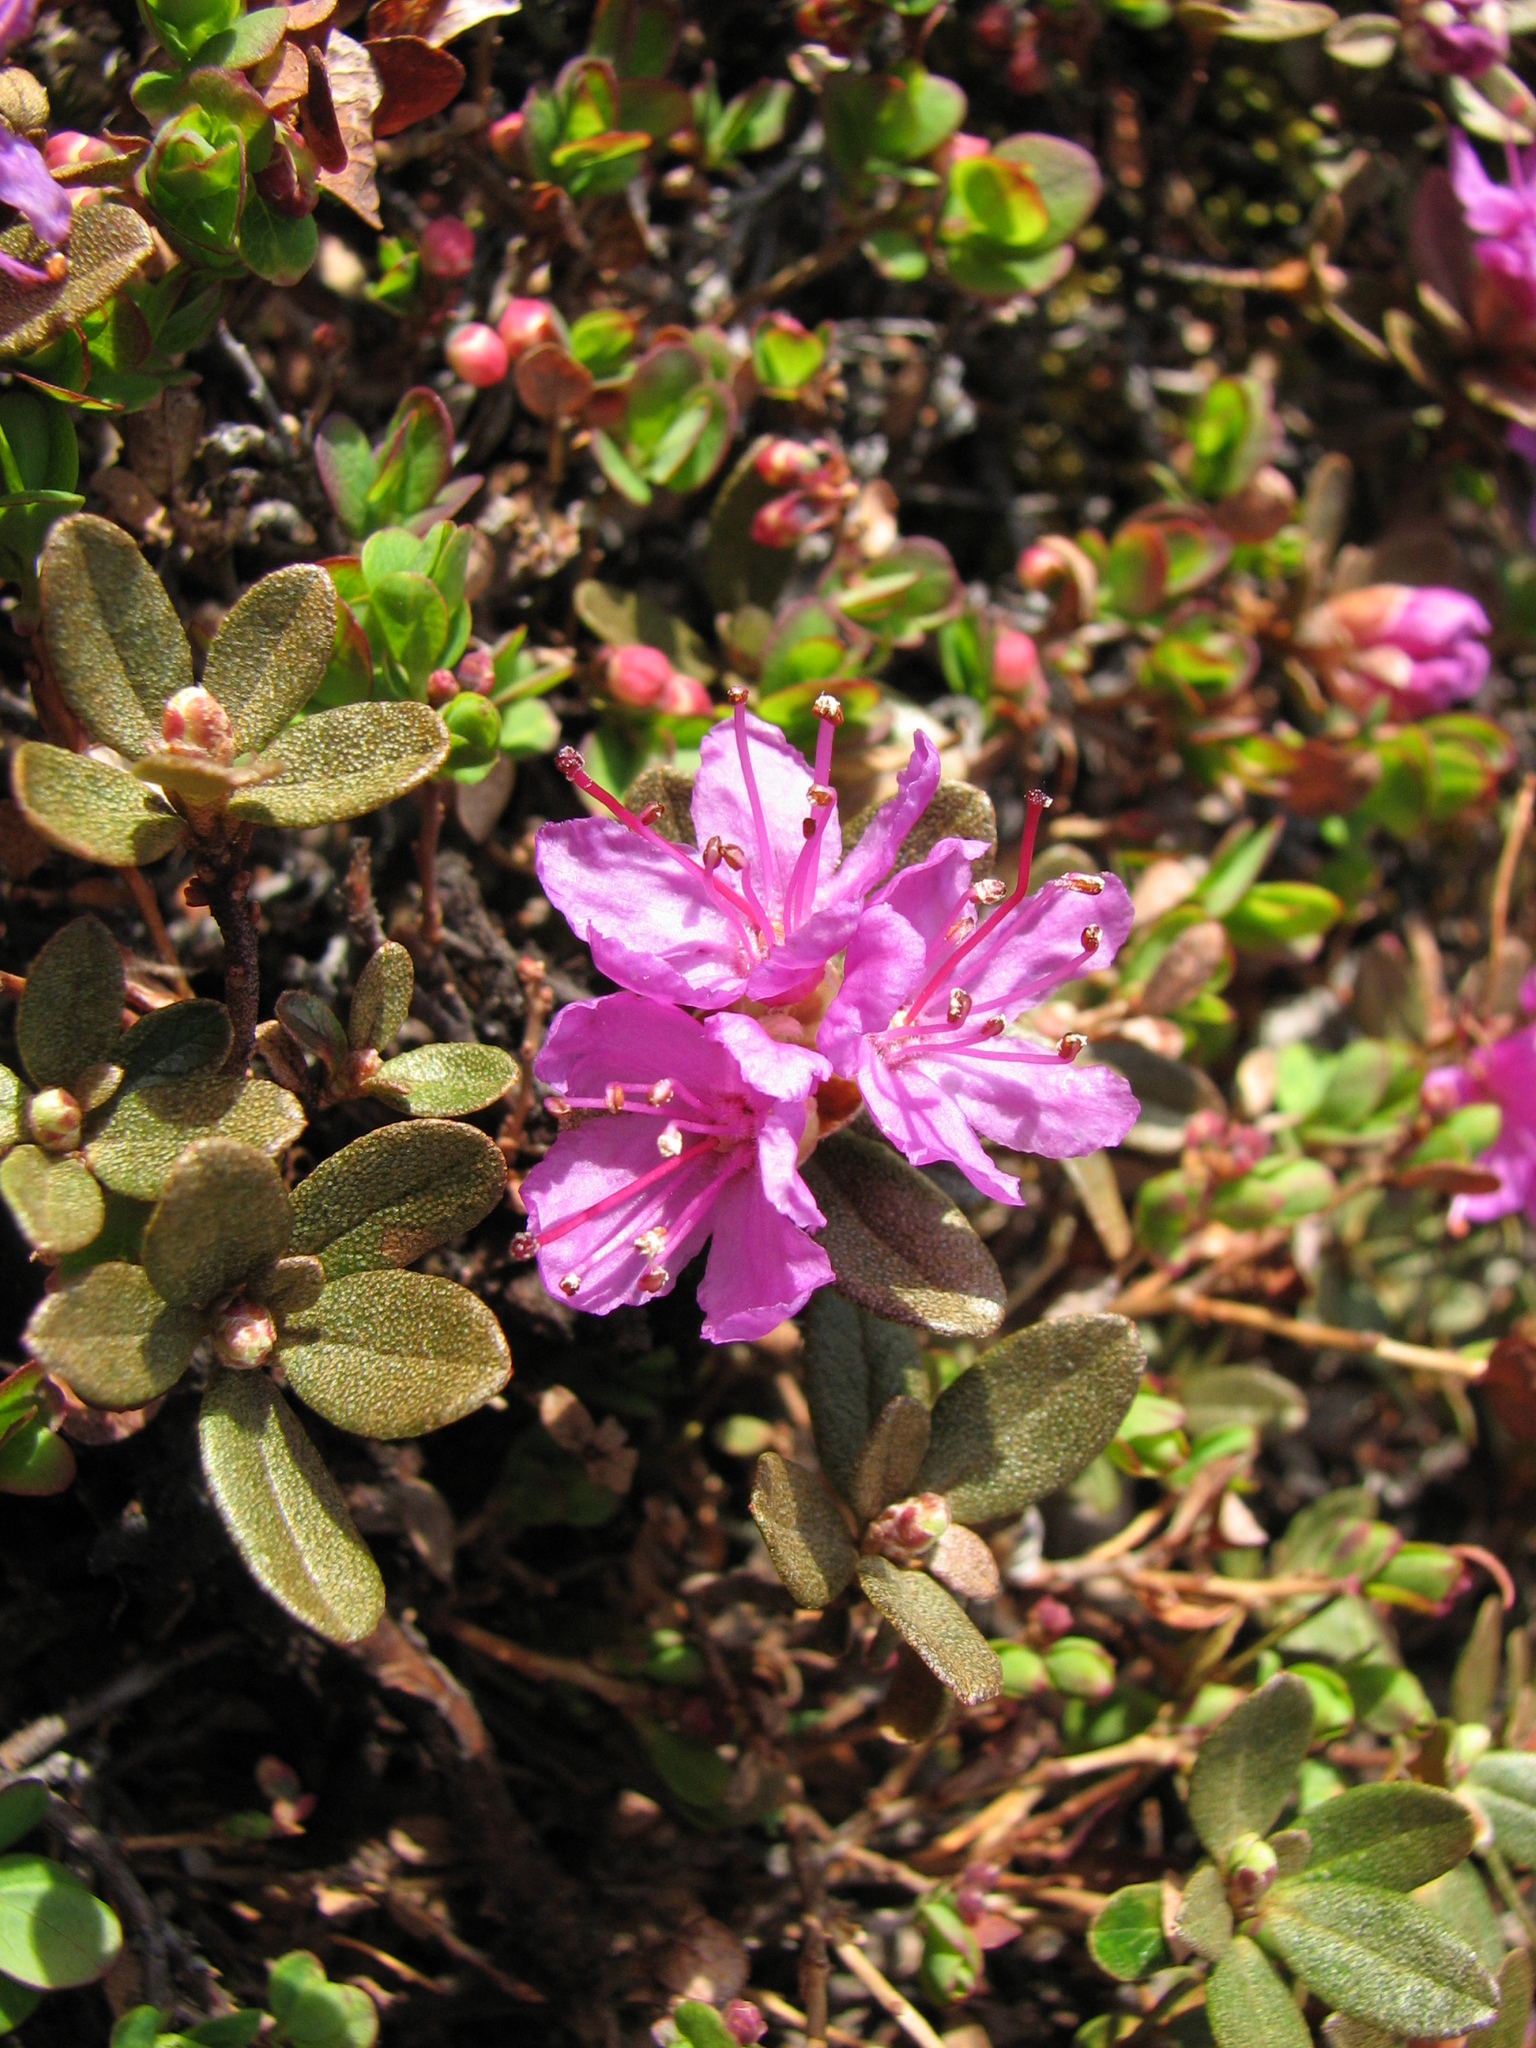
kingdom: Plantae
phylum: Tracheophyta
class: Magnoliopsida
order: Ericales
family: Ericaceae
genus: Rhododendron
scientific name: Rhododendron lapponicum
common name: Lapland rhododendron
